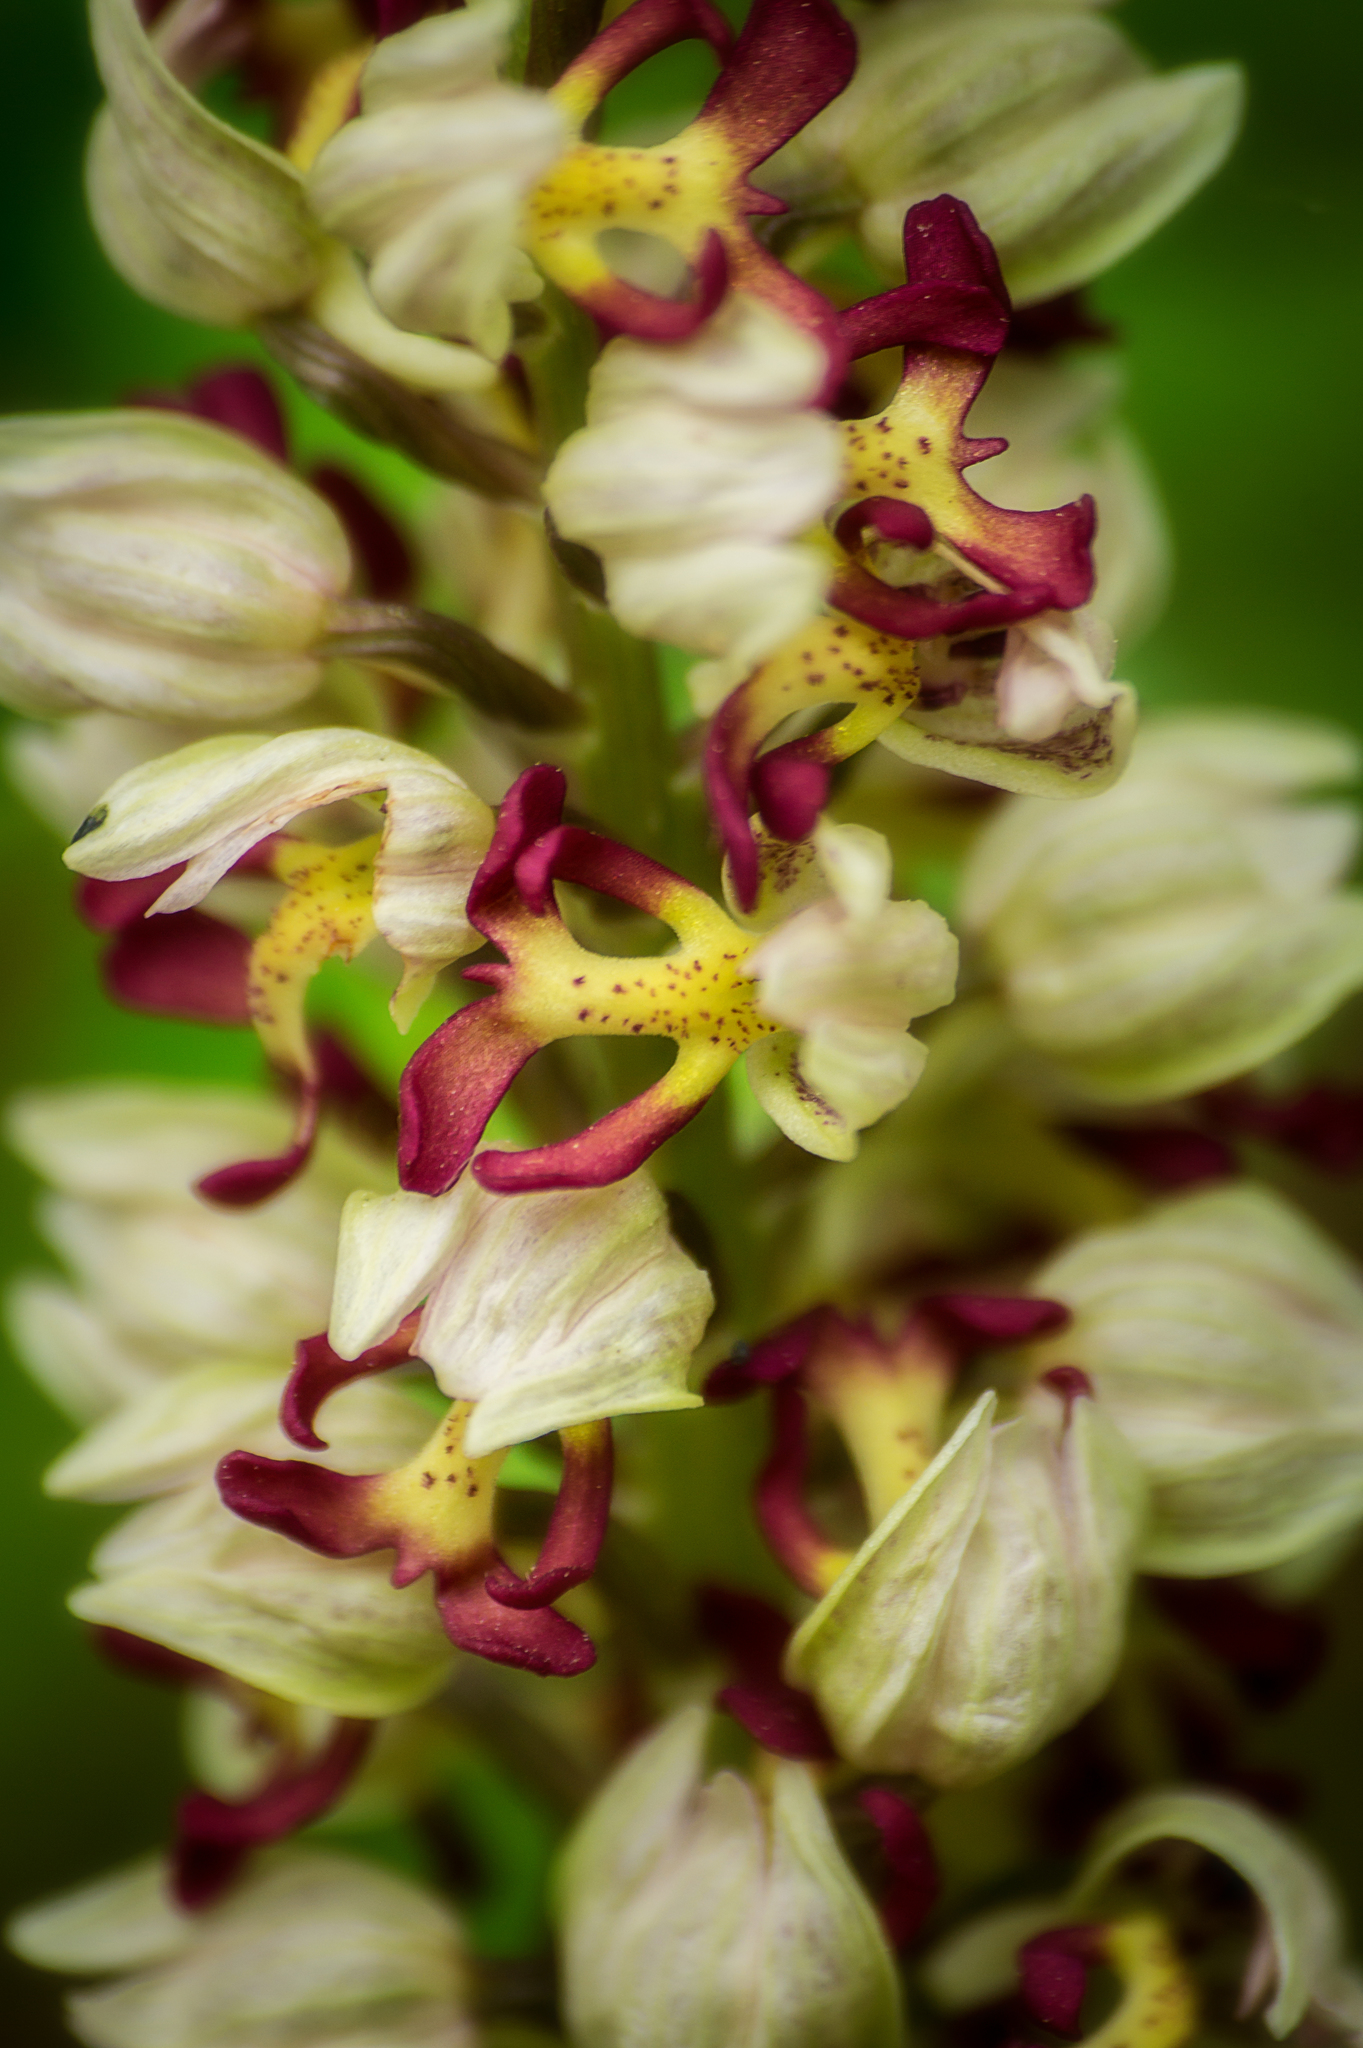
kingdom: Plantae
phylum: Tracheophyta
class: Liliopsida
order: Asparagales
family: Orchidaceae
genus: Orchis
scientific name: Orchis calliantha
